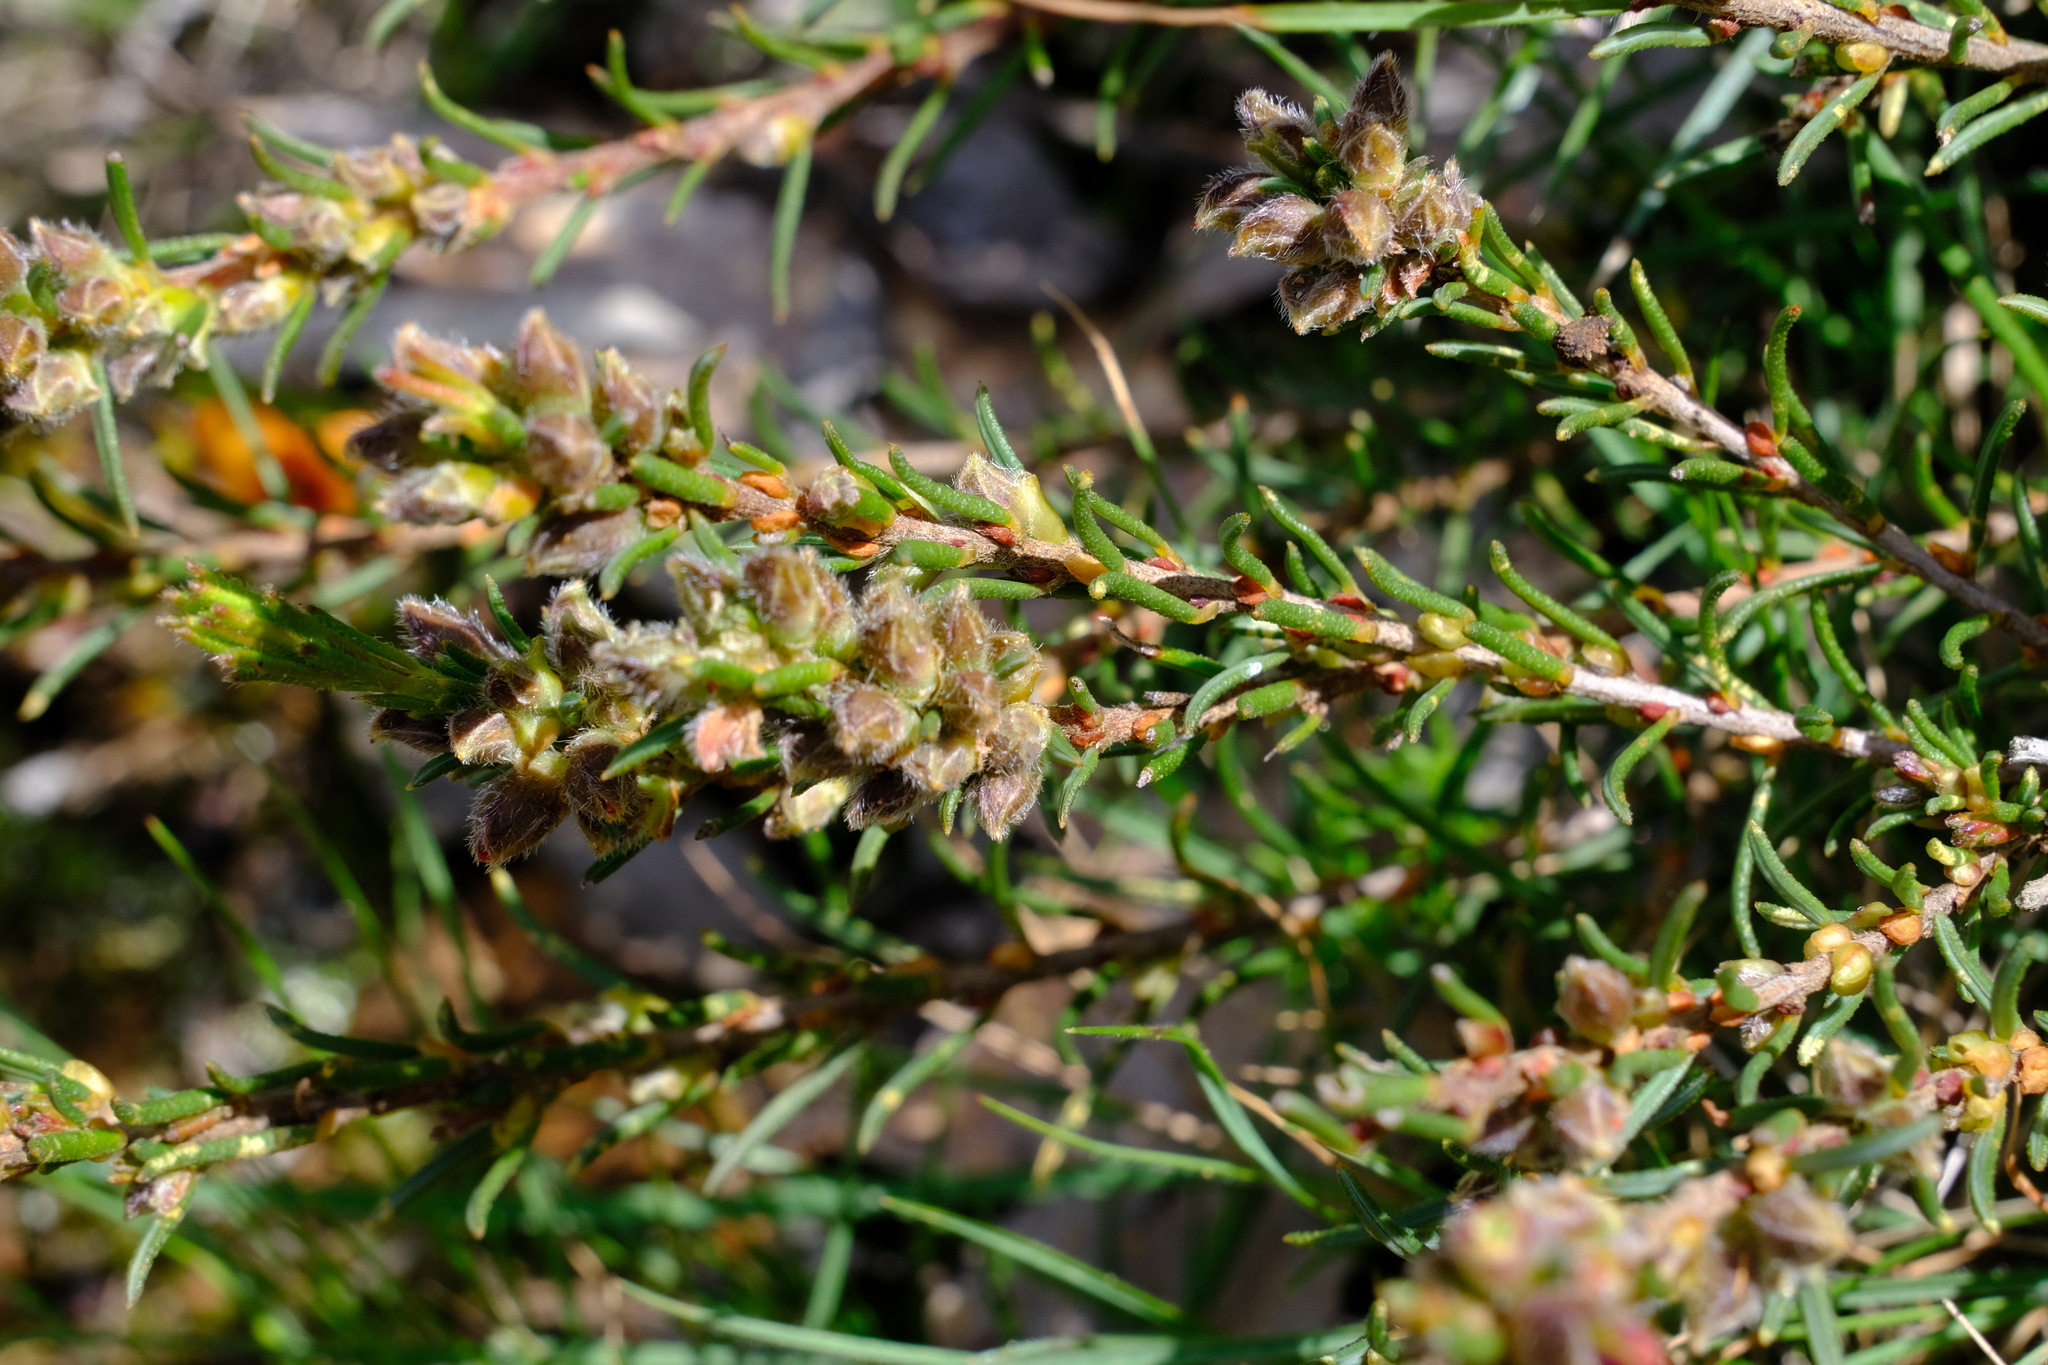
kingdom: Plantae
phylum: Tracheophyta
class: Magnoliopsida
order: Fabales
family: Fabaceae
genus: Dillwynia
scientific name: Dillwynia sericea
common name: Showy parrot-pea
